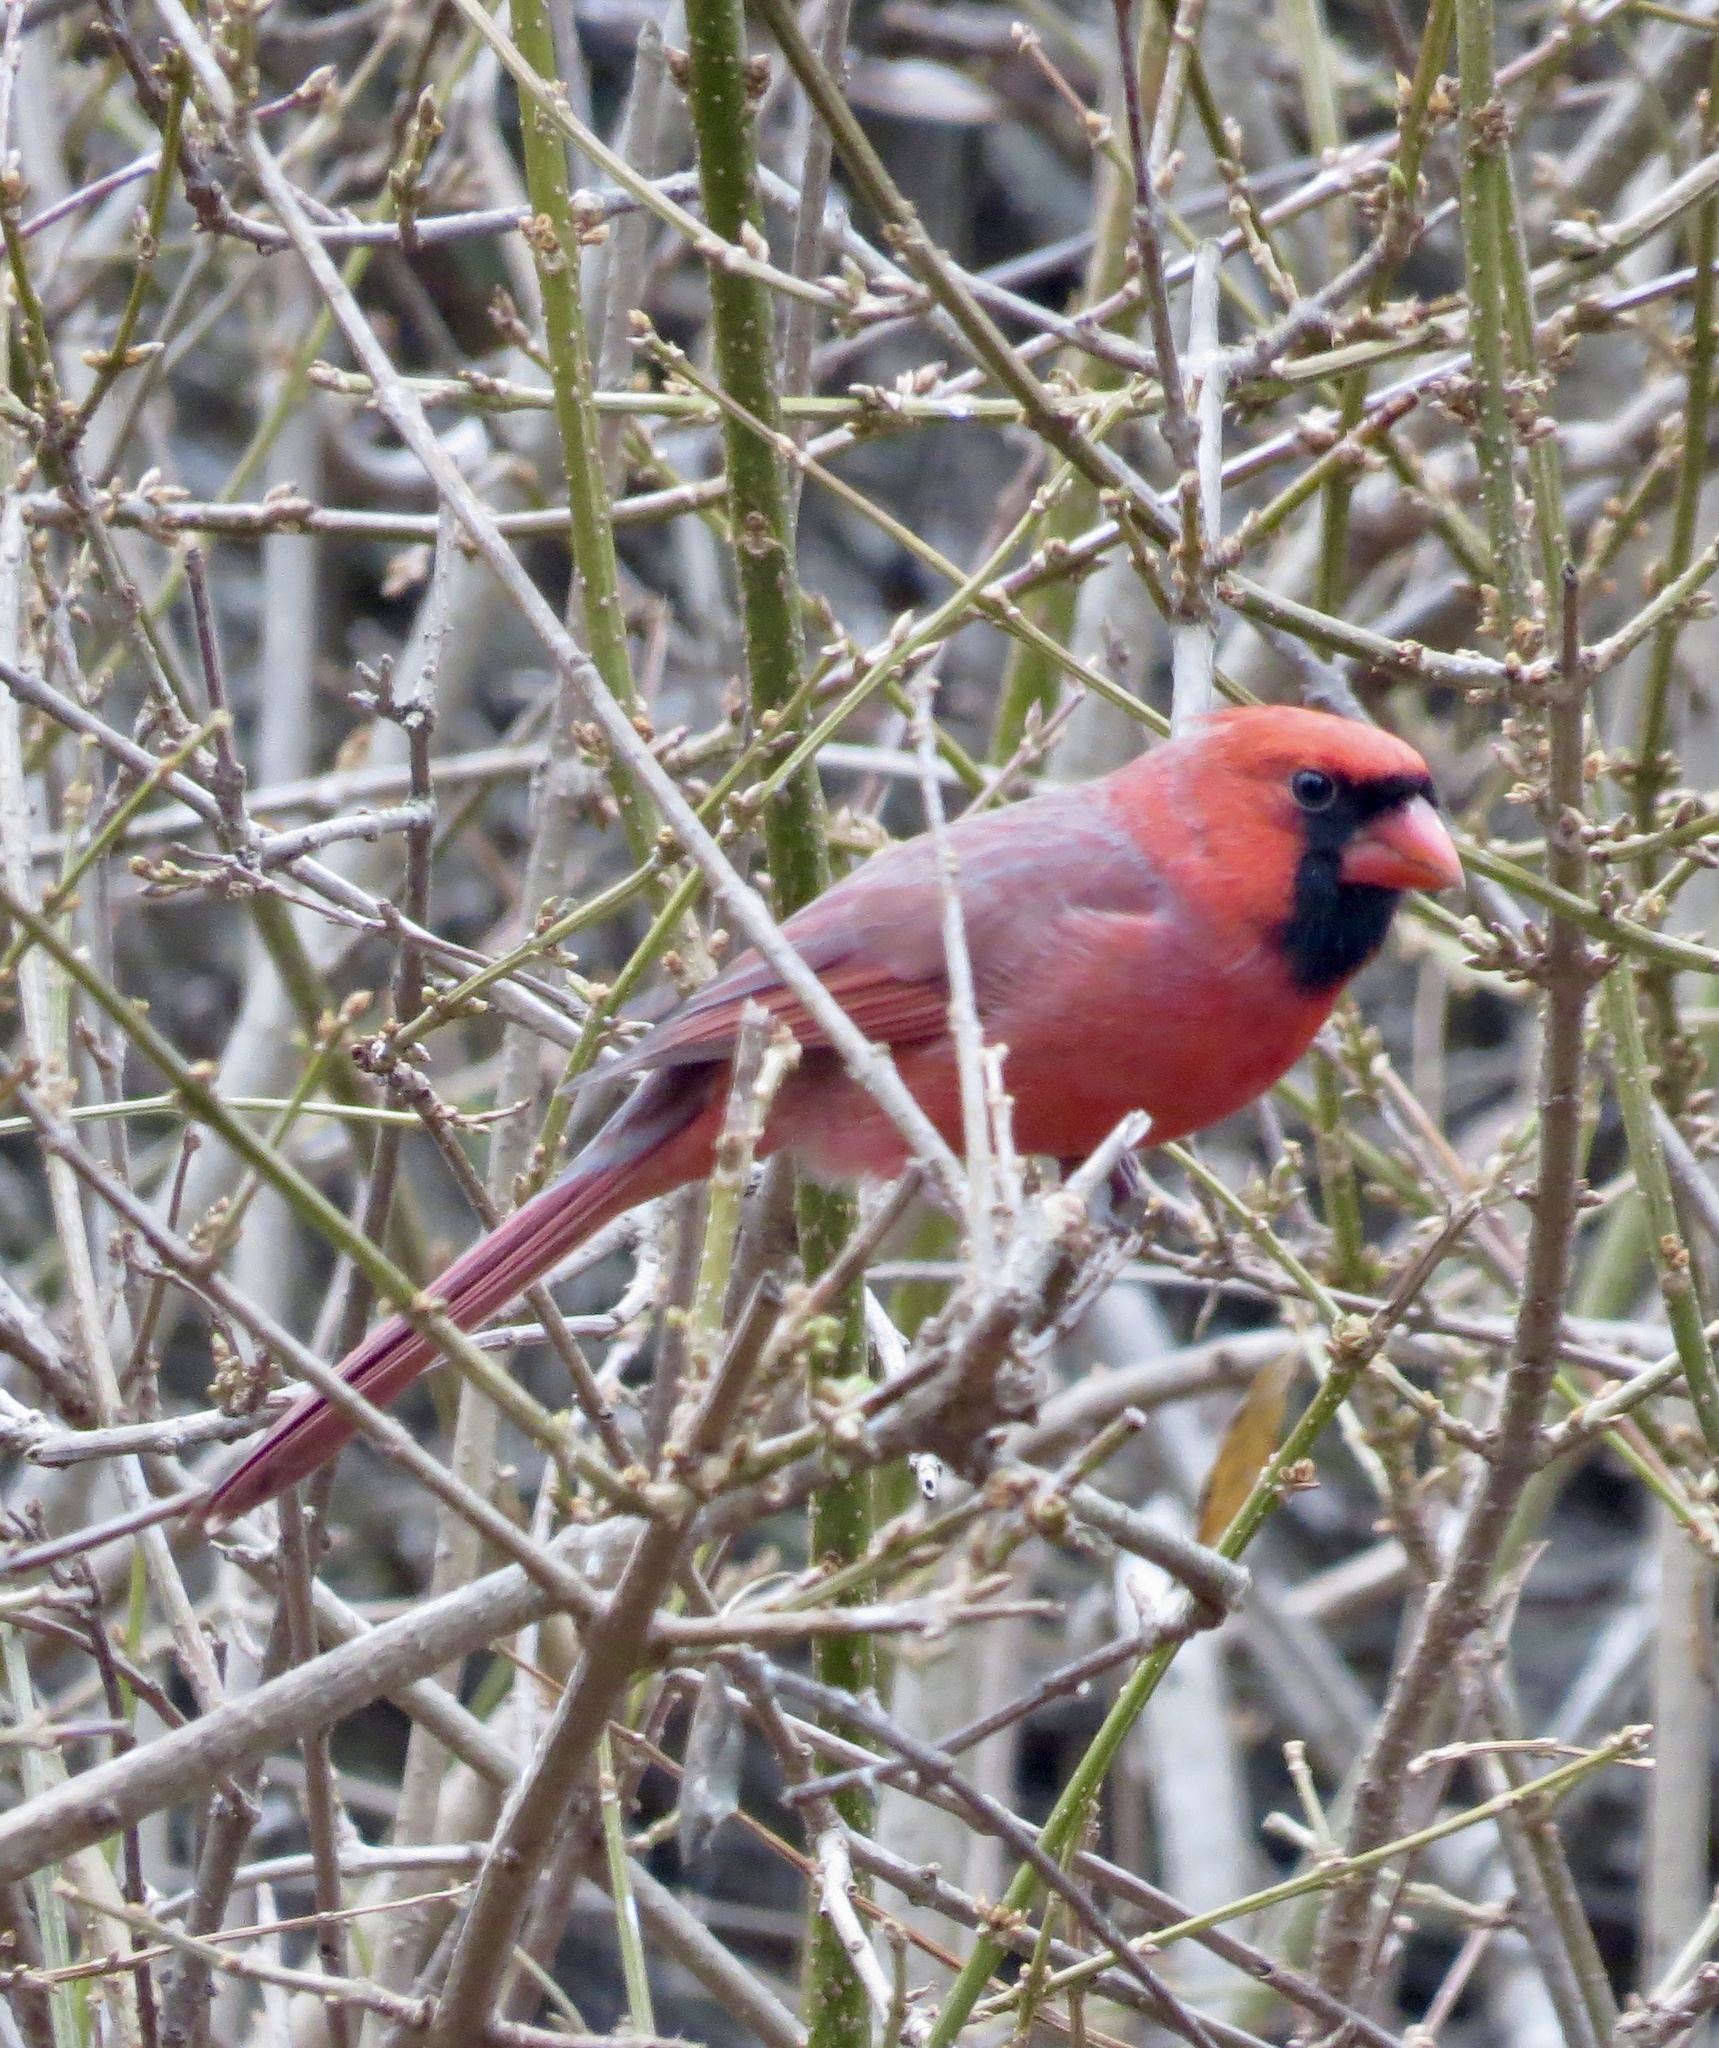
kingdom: Animalia
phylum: Chordata
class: Aves
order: Passeriformes
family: Cardinalidae
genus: Cardinalis
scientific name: Cardinalis cardinalis
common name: Northern cardinal
